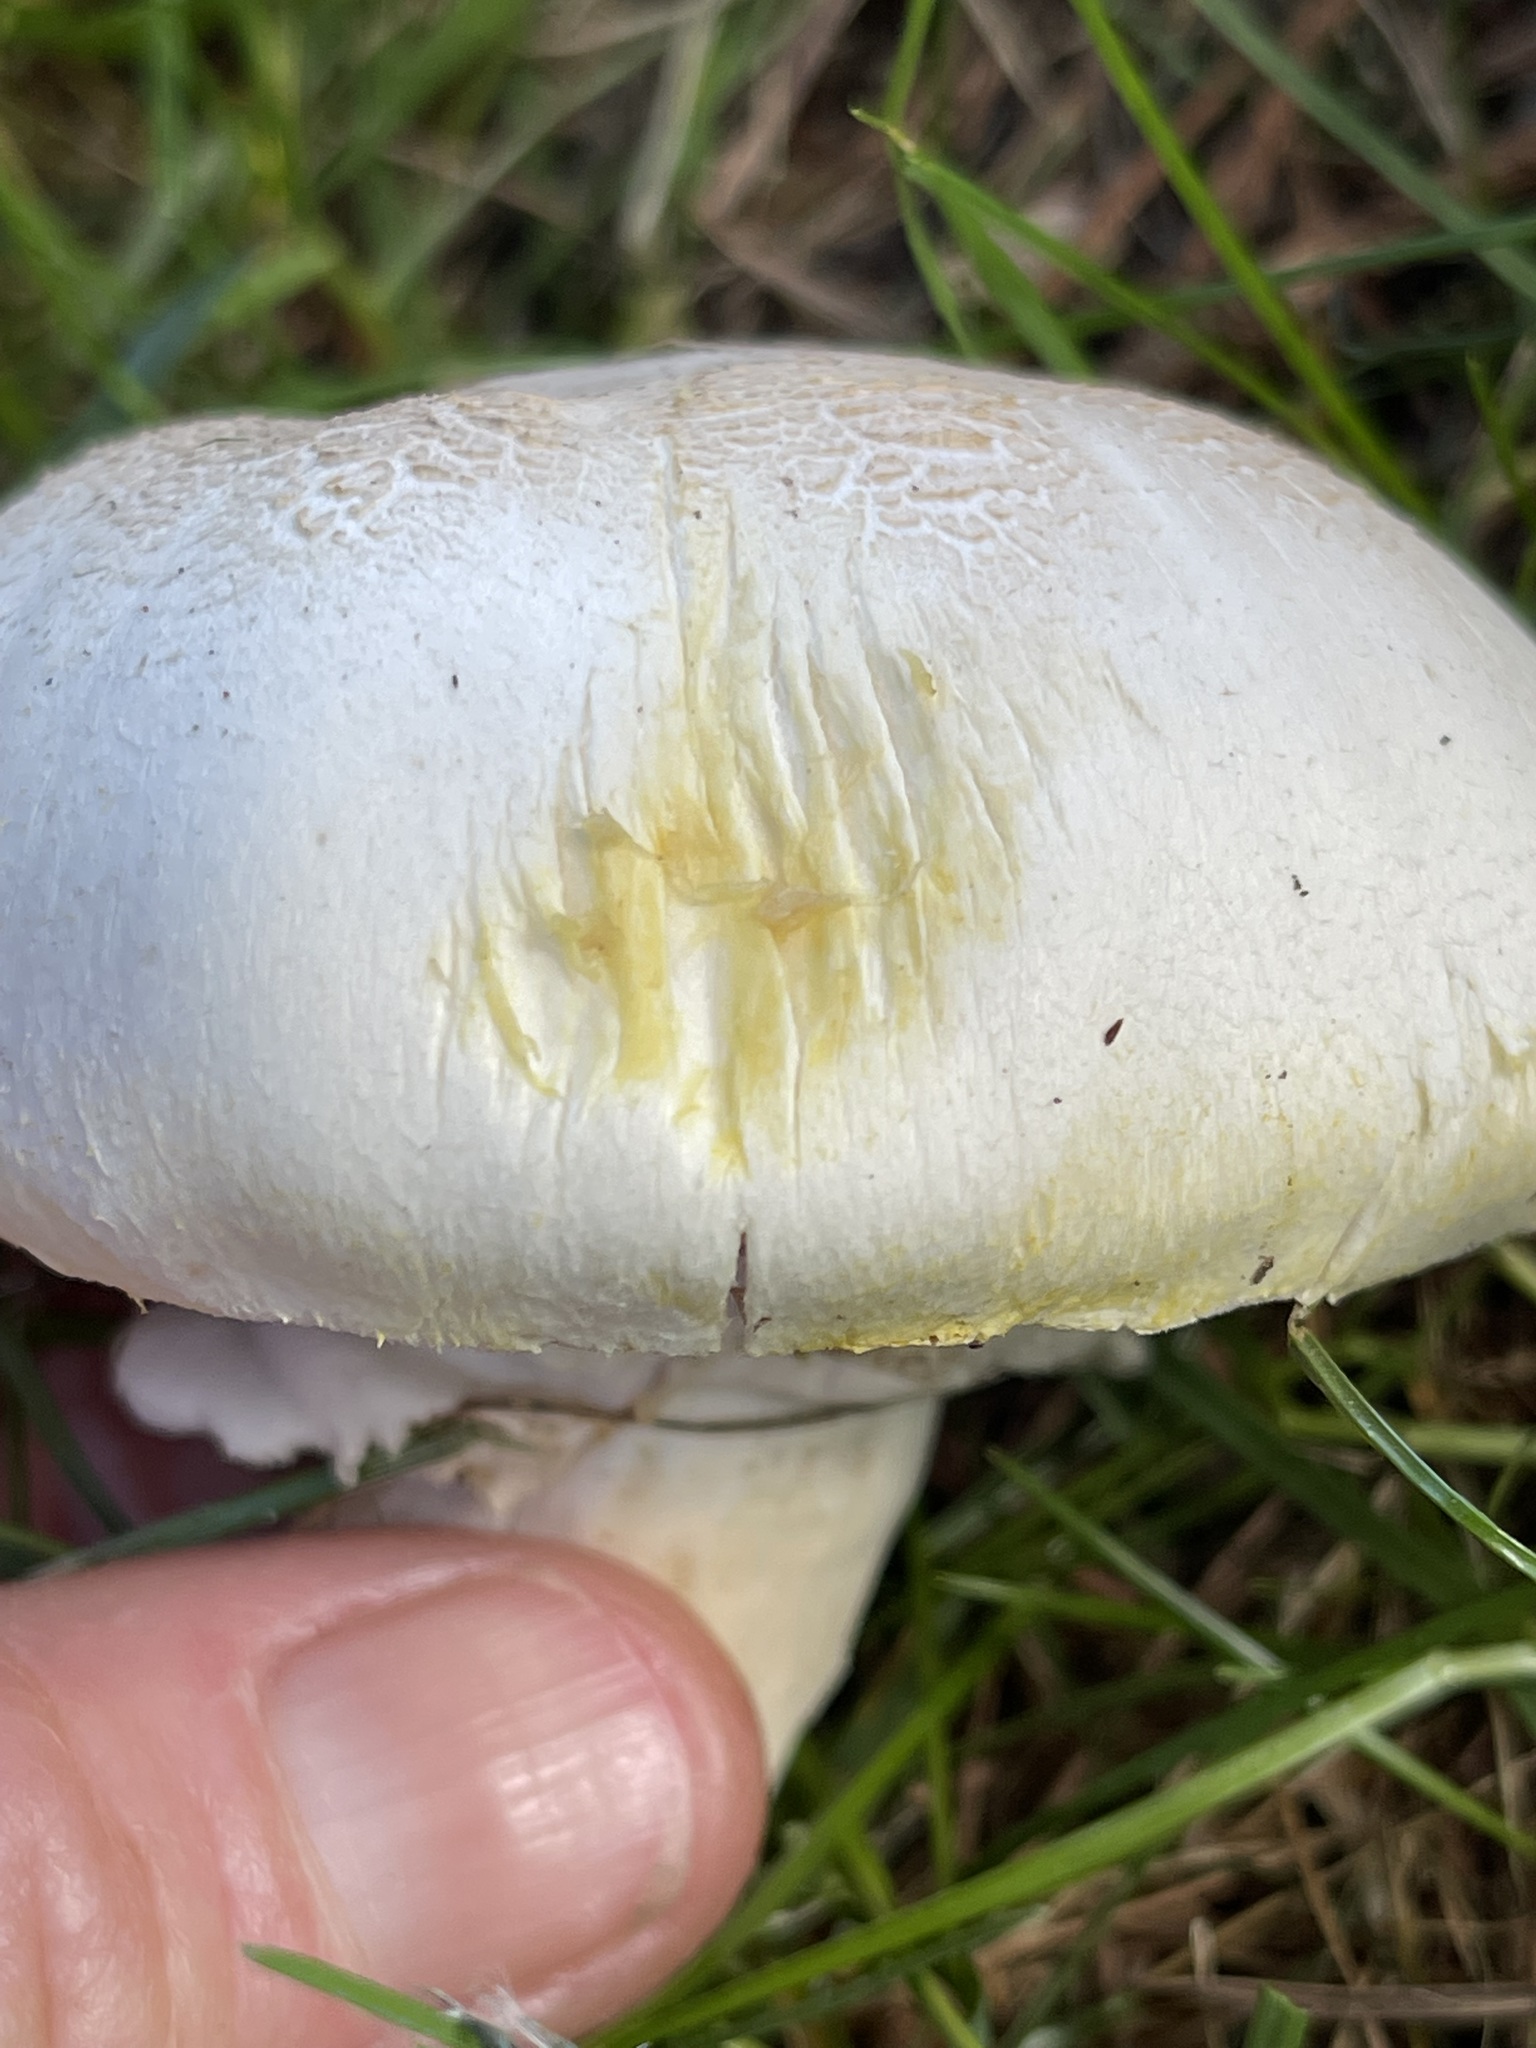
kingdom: Fungi
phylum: Basidiomycota
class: Agaricomycetes
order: Agaricales
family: Agaricaceae
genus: Agaricus
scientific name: Agaricus xanthodermus
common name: Yellow stainer
